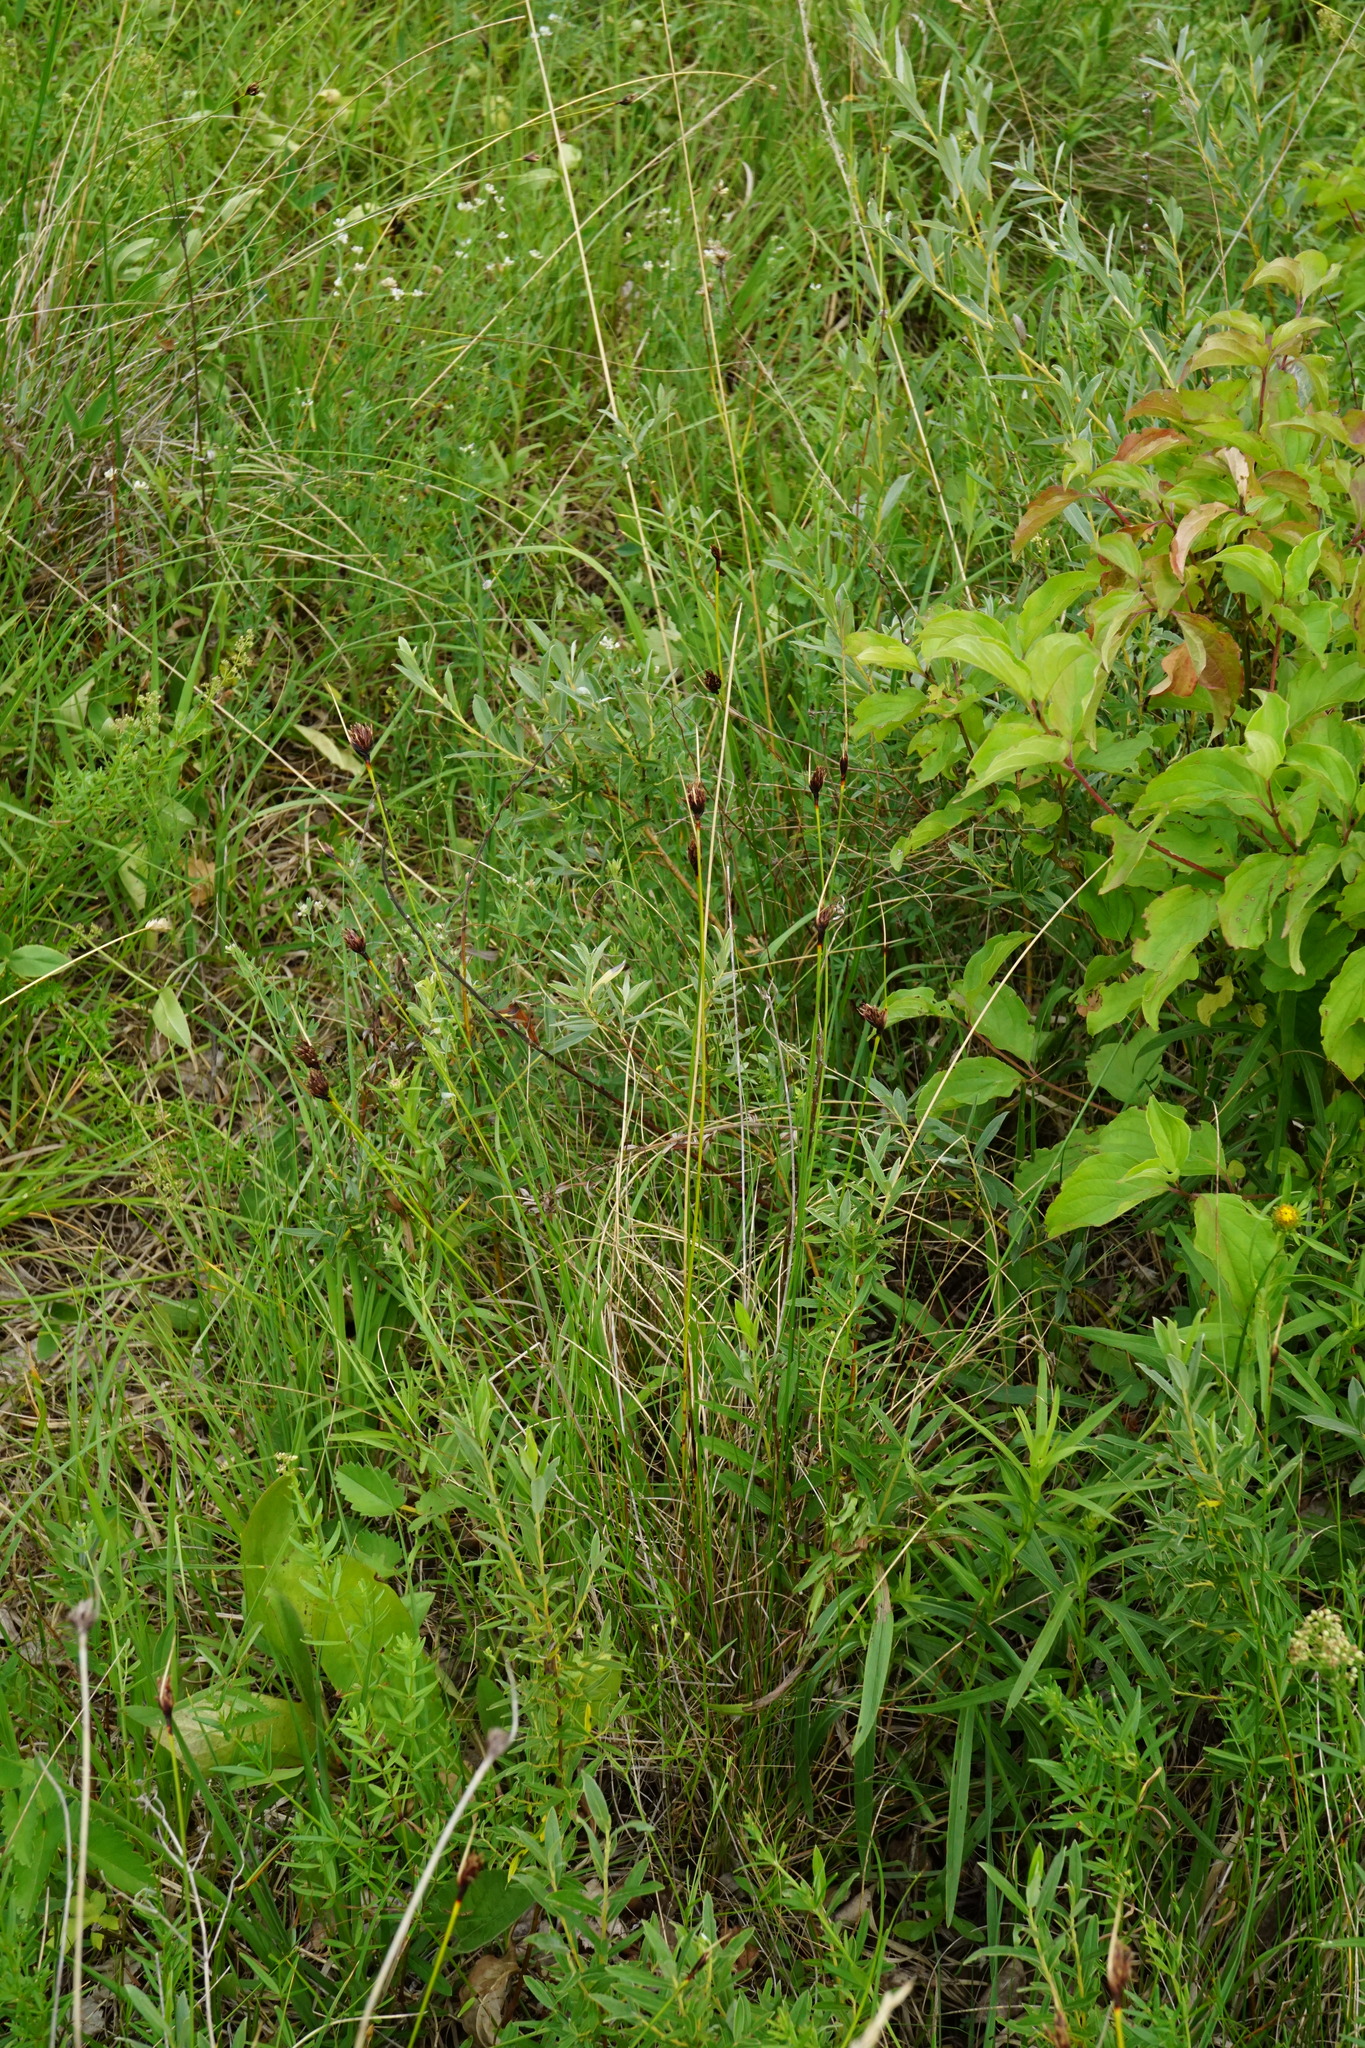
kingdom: Plantae
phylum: Tracheophyta
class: Liliopsida
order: Poales
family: Cyperaceae
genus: Schoenus
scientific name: Schoenus nigricans
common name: Black bog-rush
